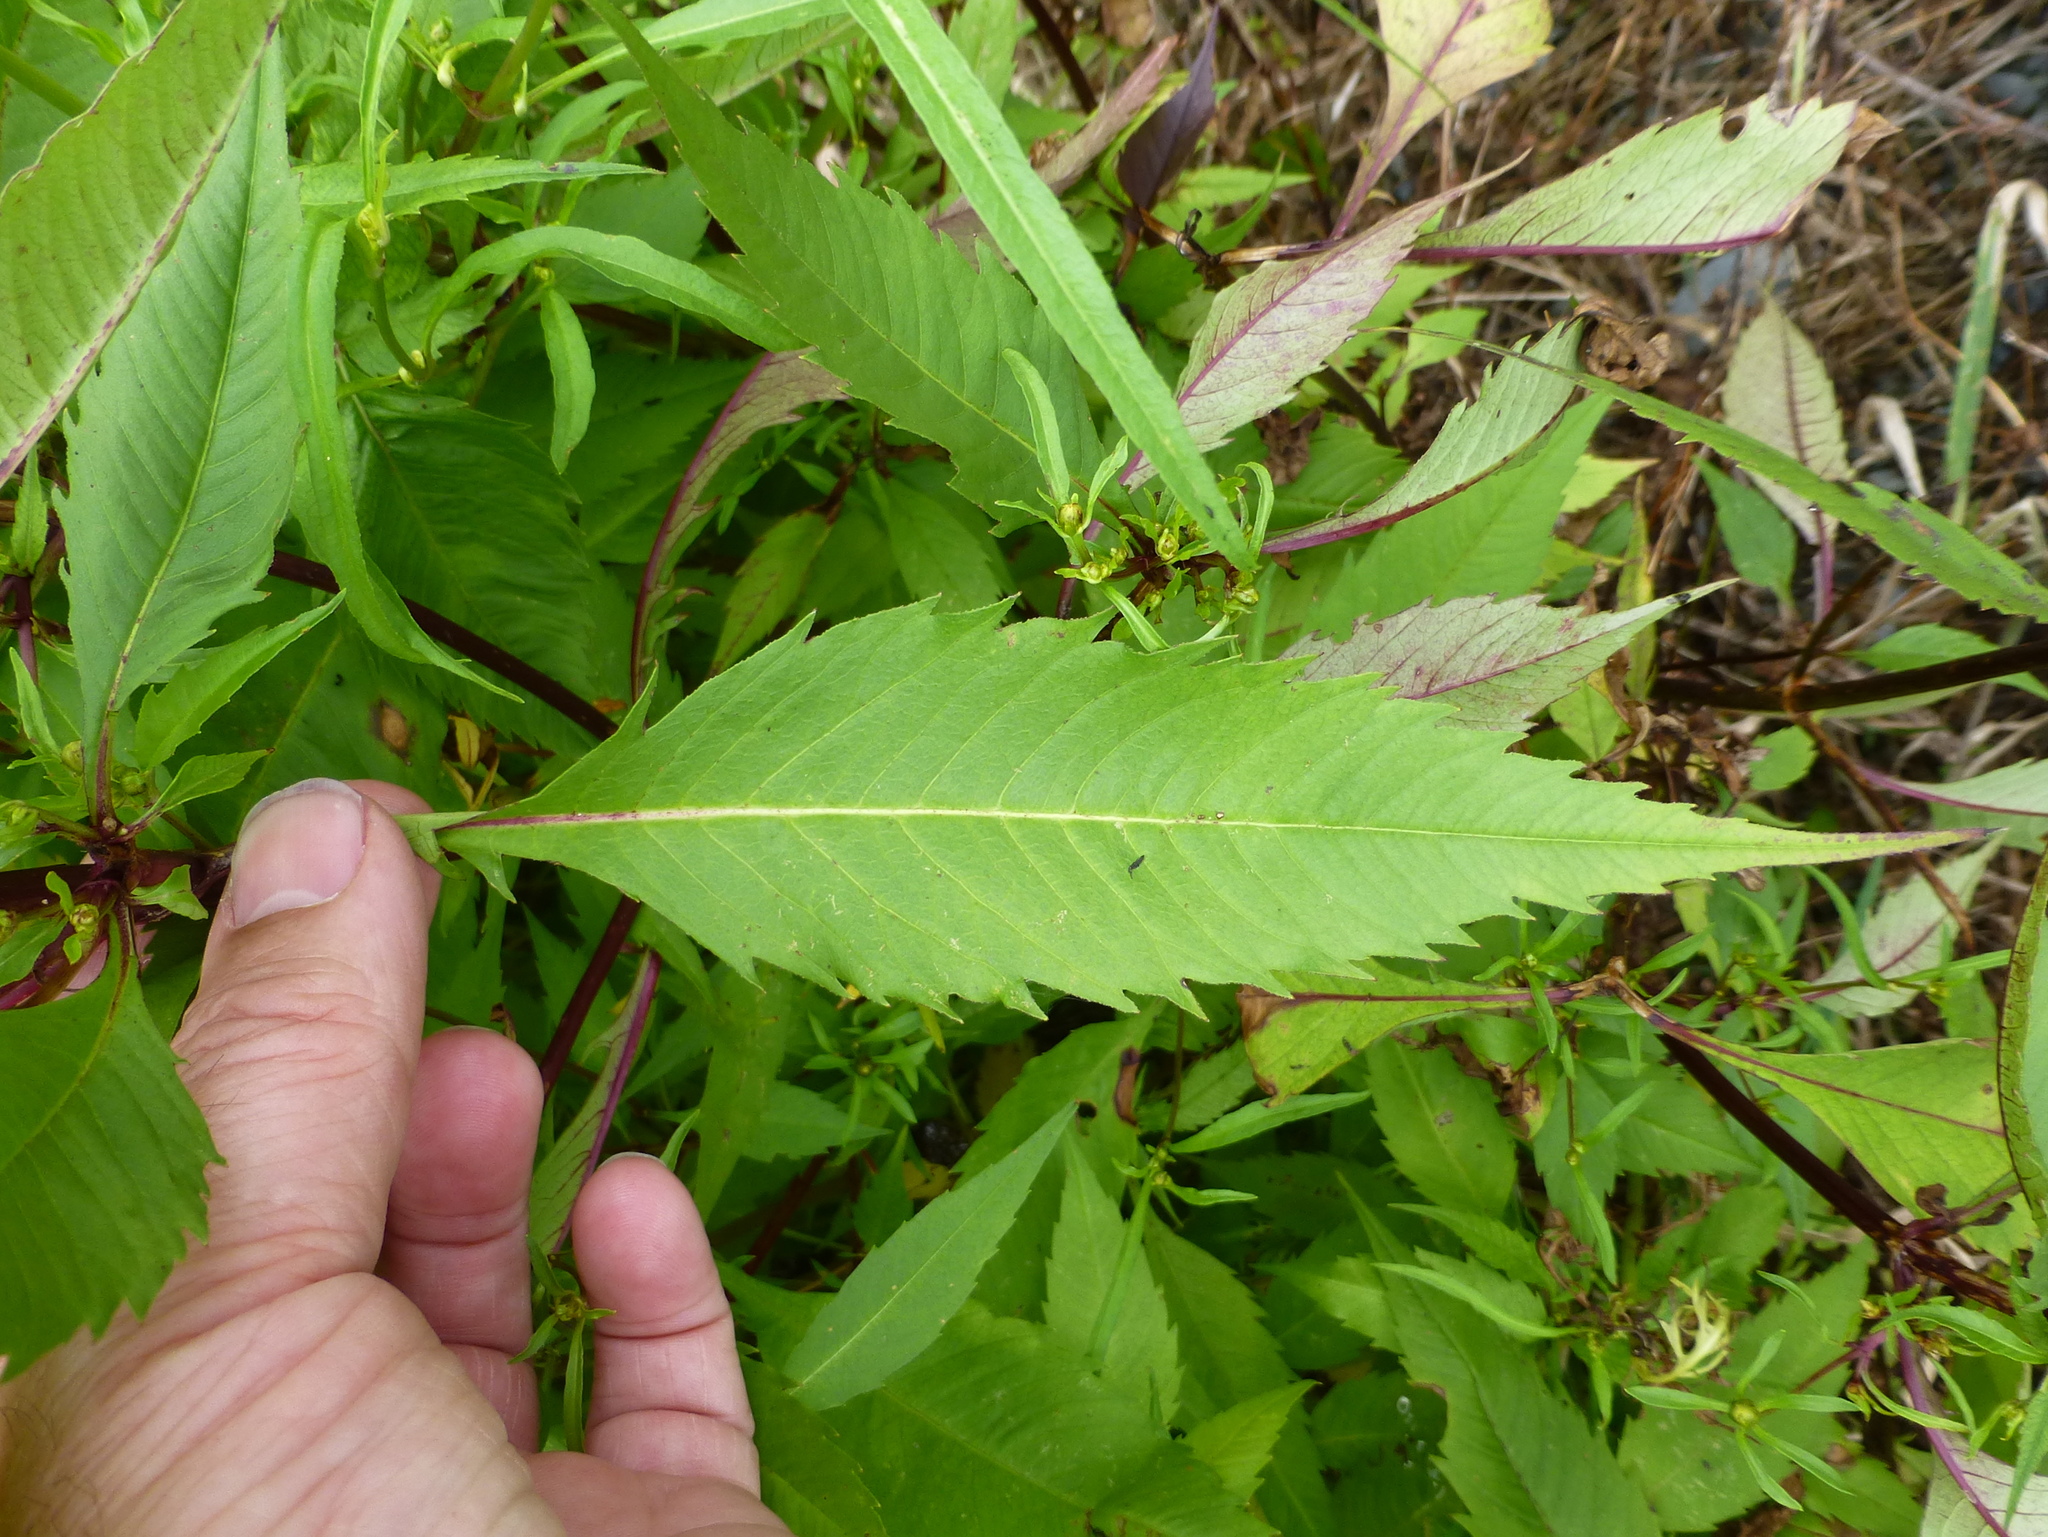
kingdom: Plantae
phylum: Tracheophyta
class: Magnoliopsida
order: Asterales
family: Asteraceae
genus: Bidens
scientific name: Bidens frondosa
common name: Beggarticks
